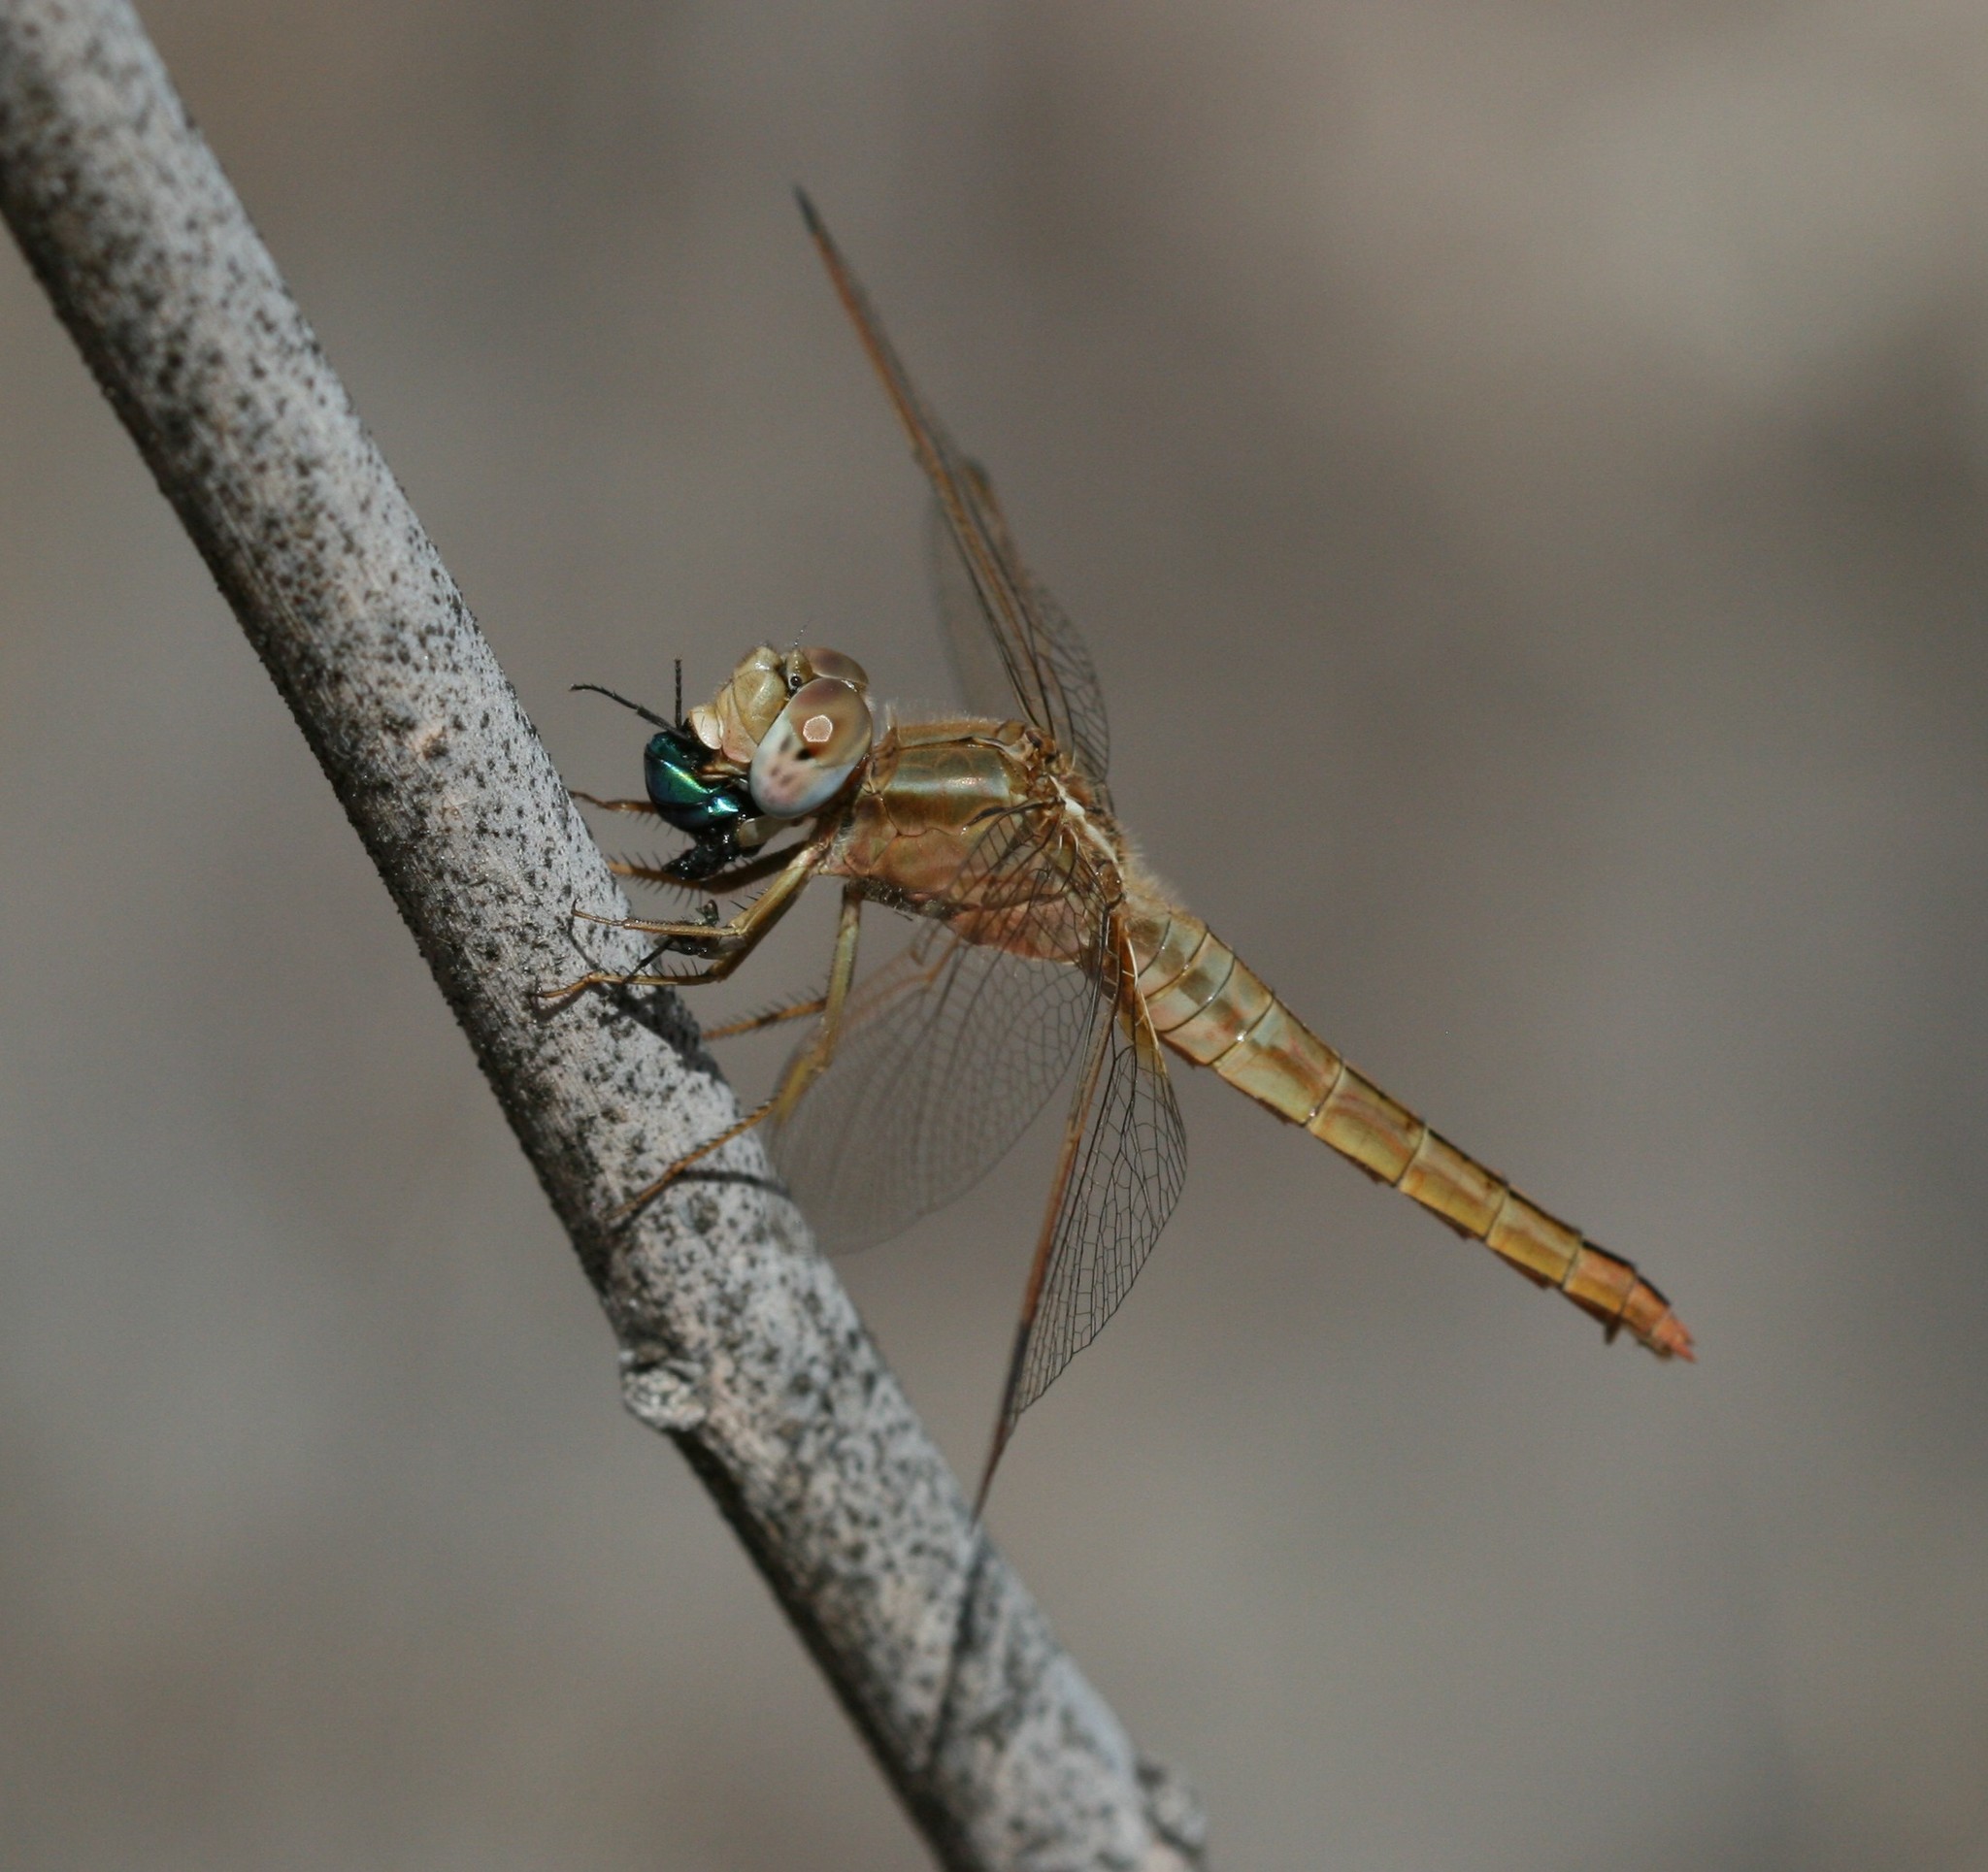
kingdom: Animalia
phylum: Arthropoda
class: Insecta
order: Odonata
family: Libellulidae
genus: Crocothemis
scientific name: Crocothemis erythraea
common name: Scarlet dragonfly
